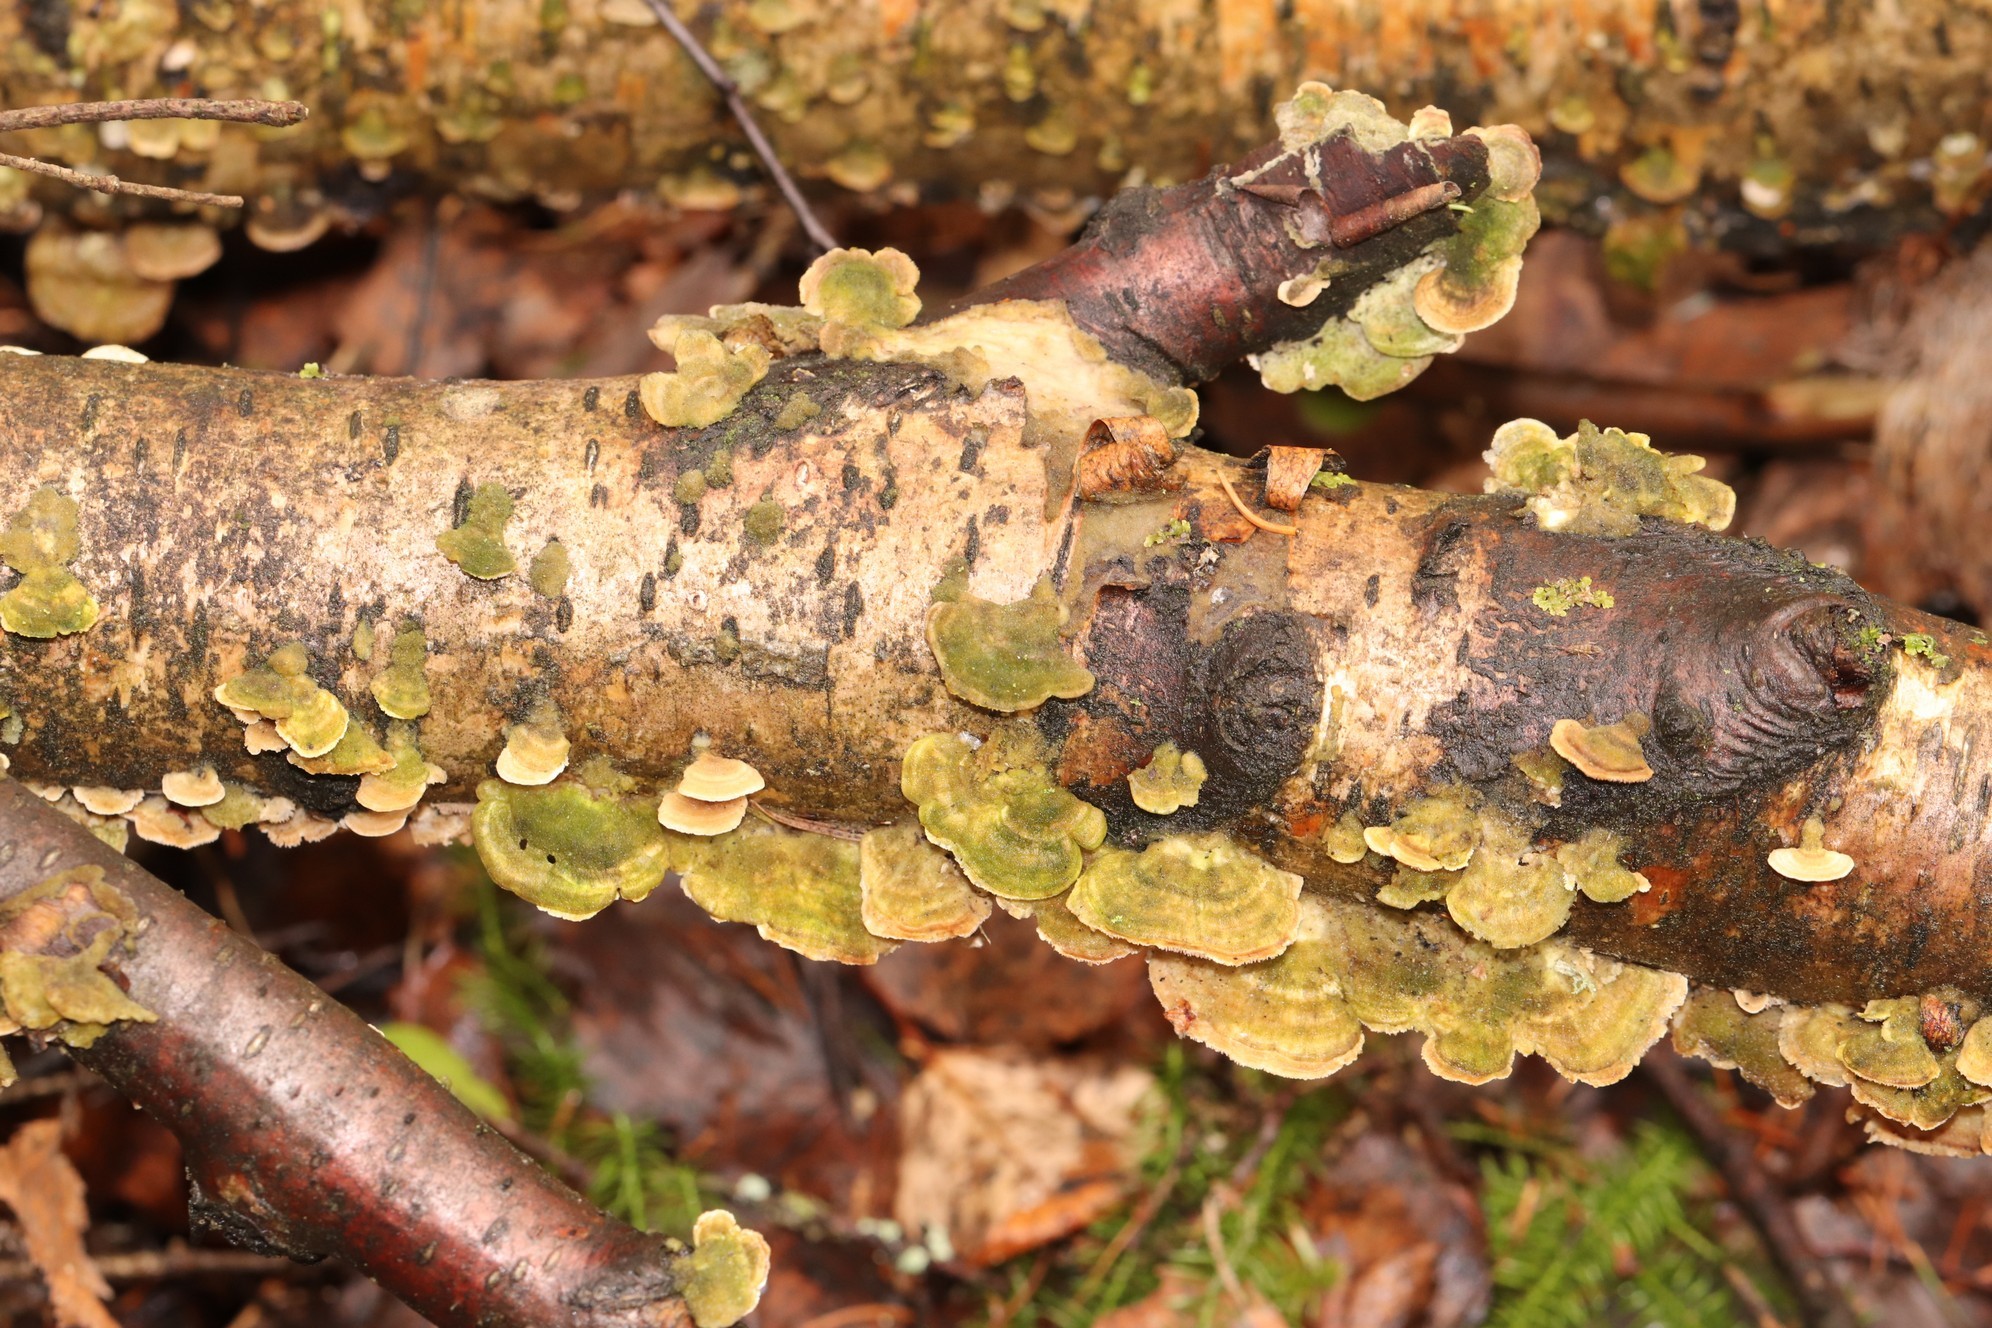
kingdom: Fungi
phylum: Basidiomycota
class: Agaricomycetes
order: Hymenochaetales
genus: Trichaptum
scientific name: Trichaptum biforme
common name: Violet-toothed polypore
